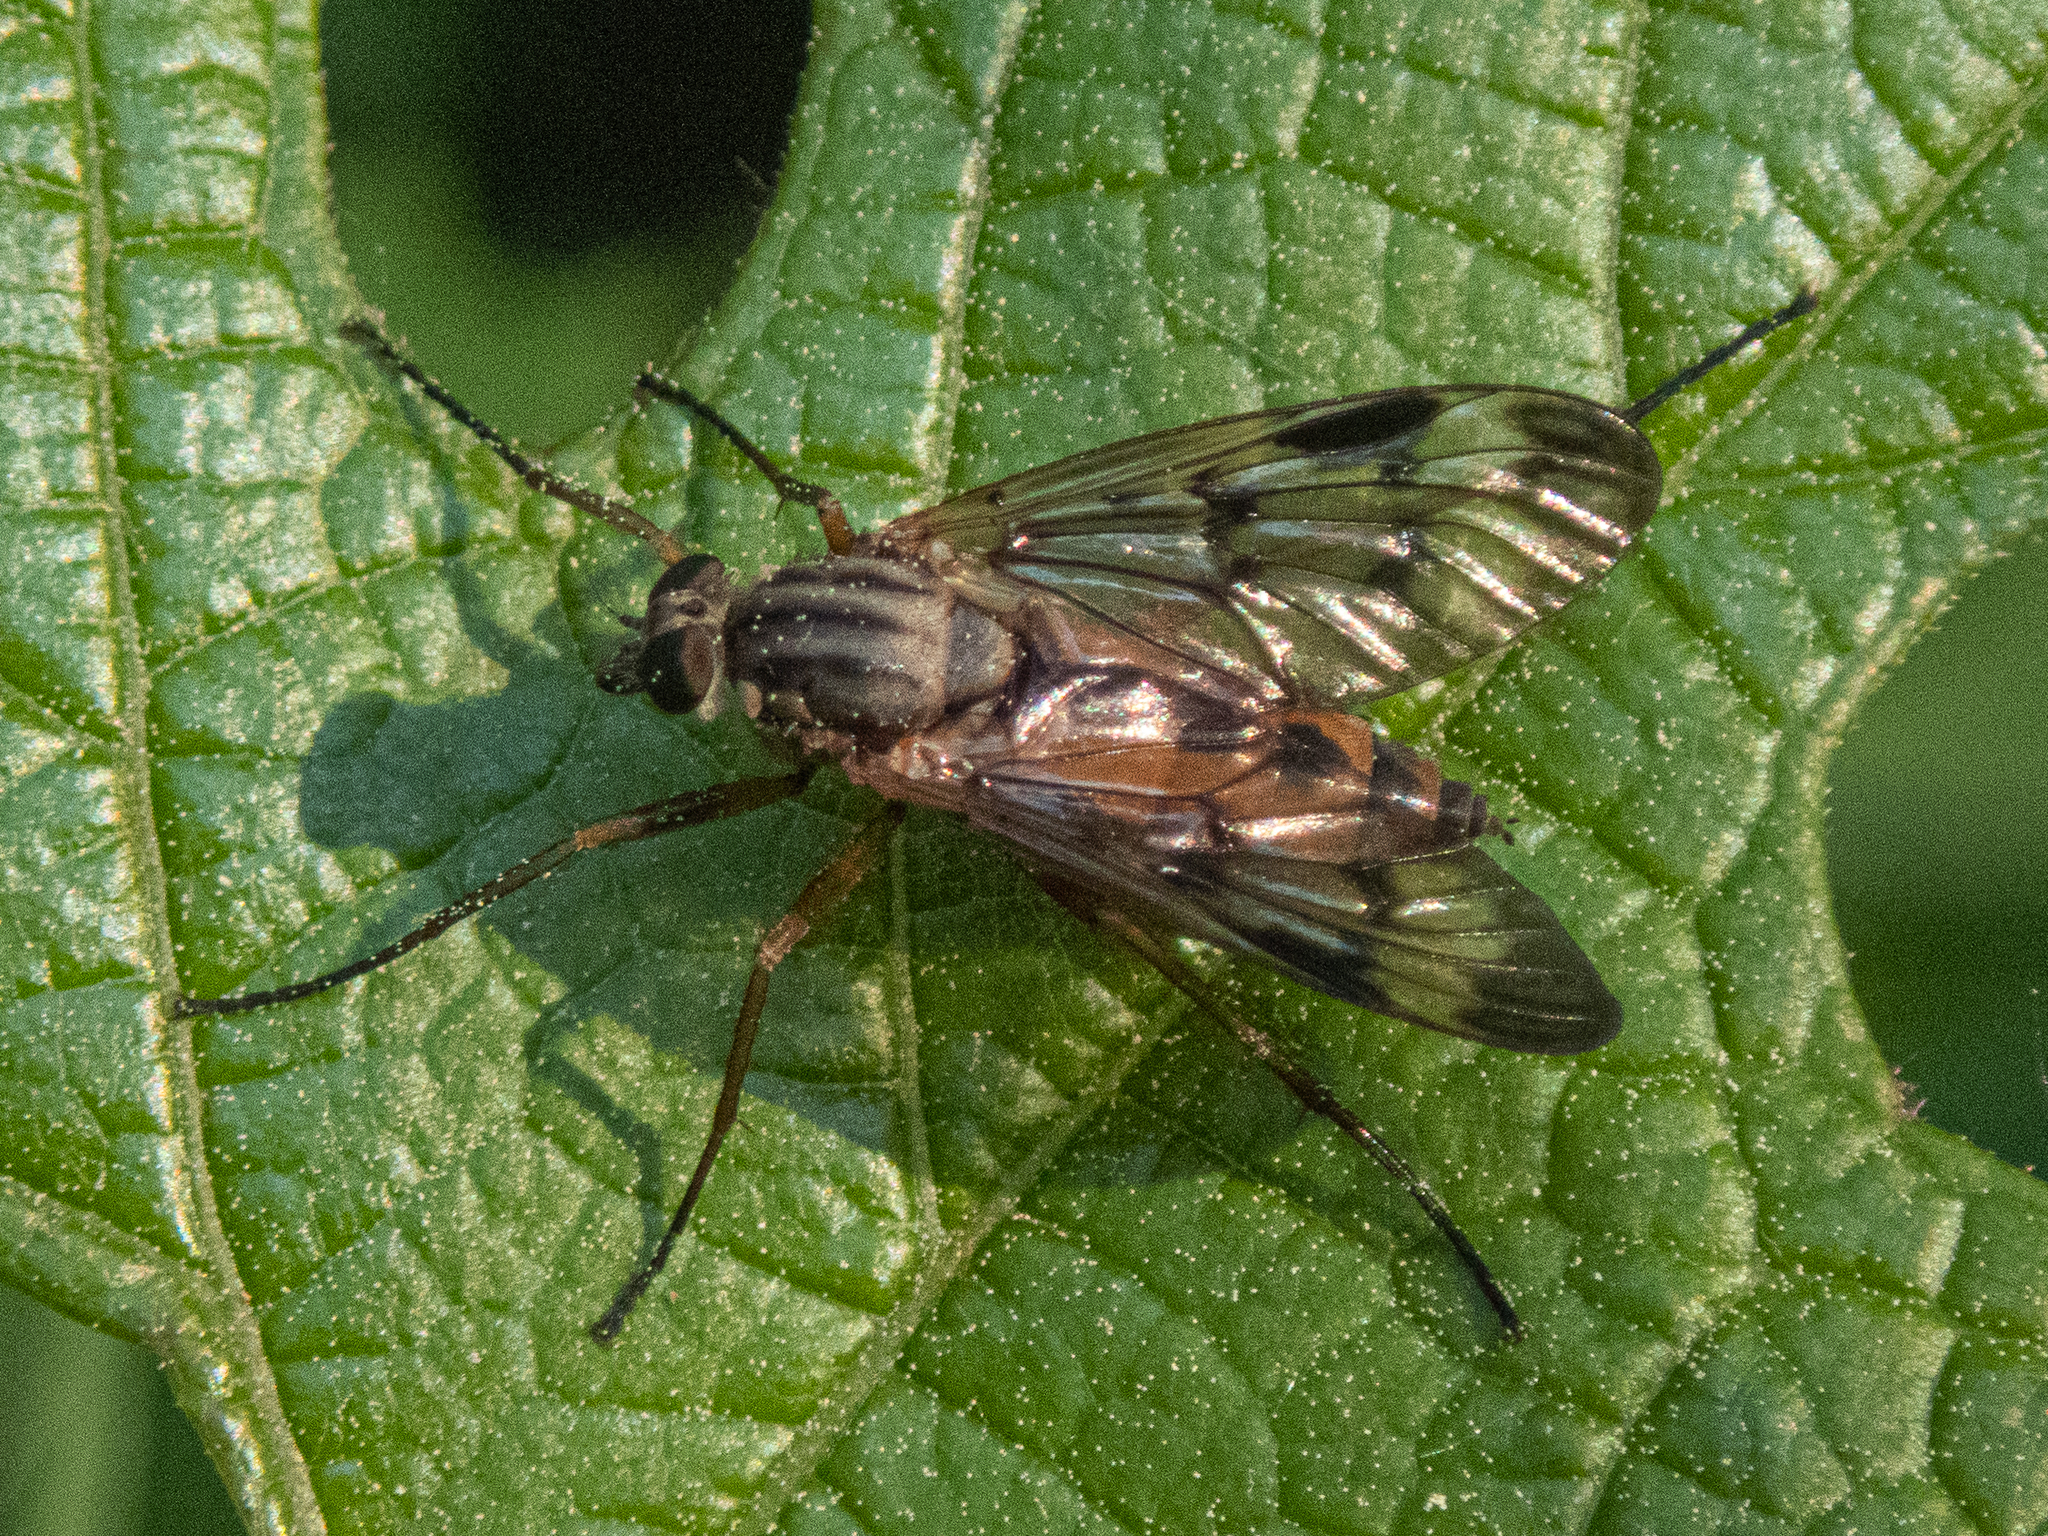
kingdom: Animalia
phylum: Arthropoda
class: Insecta
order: Diptera
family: Rhagionidae
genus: Rhagio
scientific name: Rhagio scolopacea
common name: Downlooker snipefly
